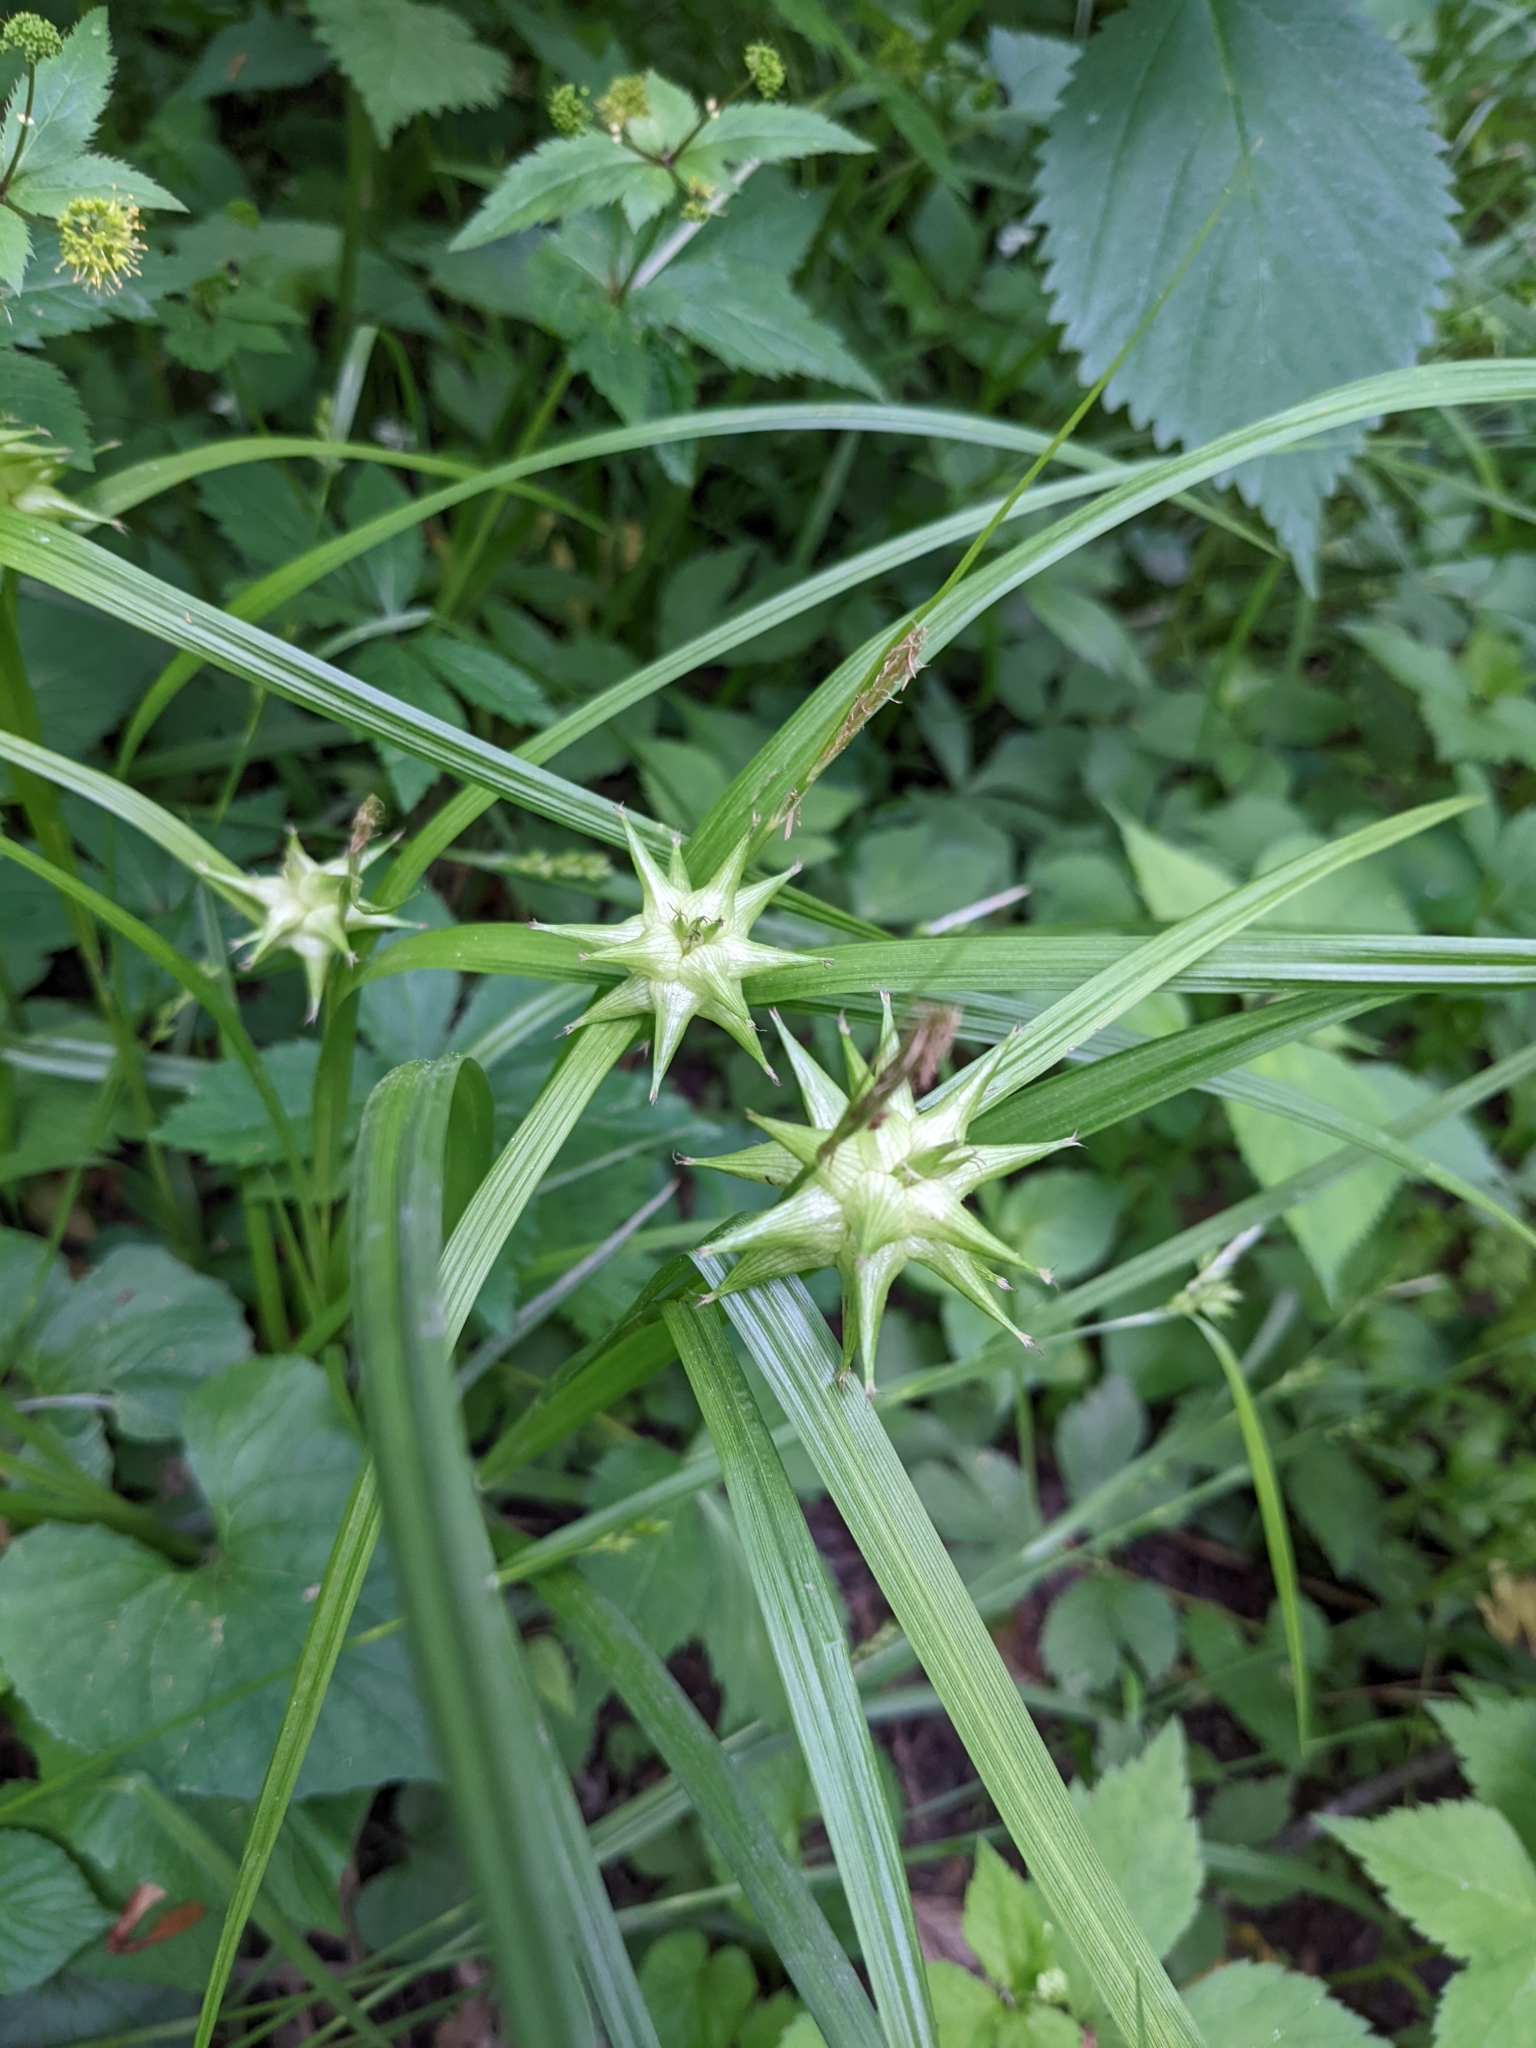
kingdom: Plantae
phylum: Tracheophyta
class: Liliopsida
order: Poales
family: Cyperaceae
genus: Carex
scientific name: Carex grayi
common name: Asa gray's sedge
